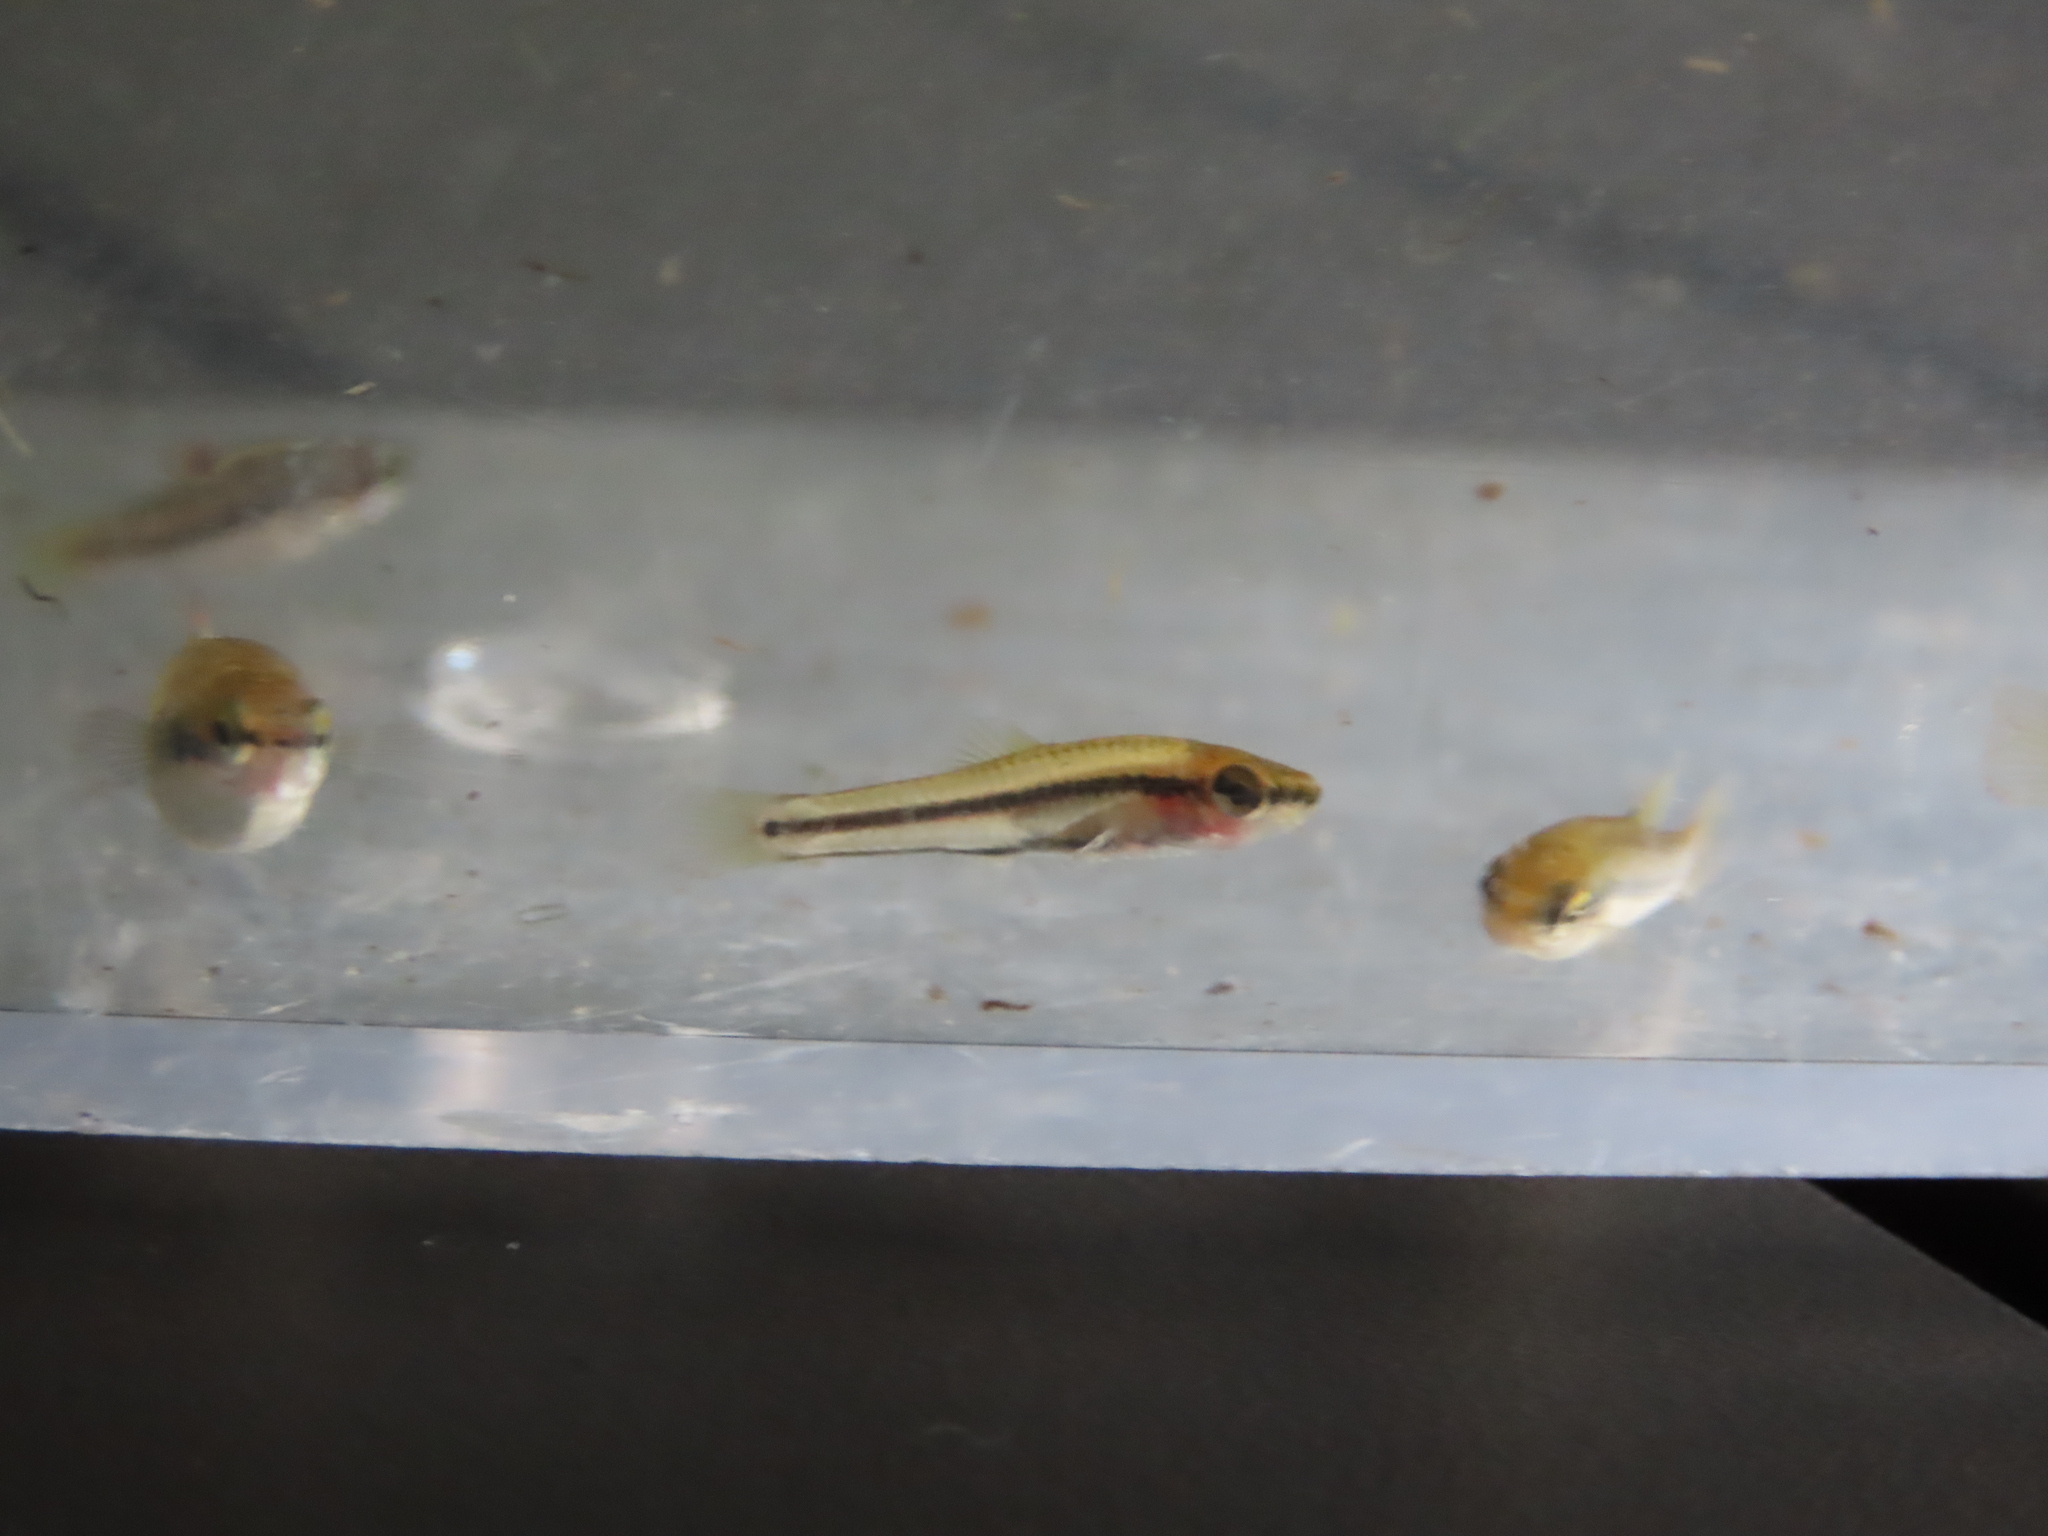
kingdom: Animalia
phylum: Chordata
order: Cyprinodontiformes
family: Fundulidae
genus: Lucania
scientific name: Lucania goodei
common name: Bluefin killifish
